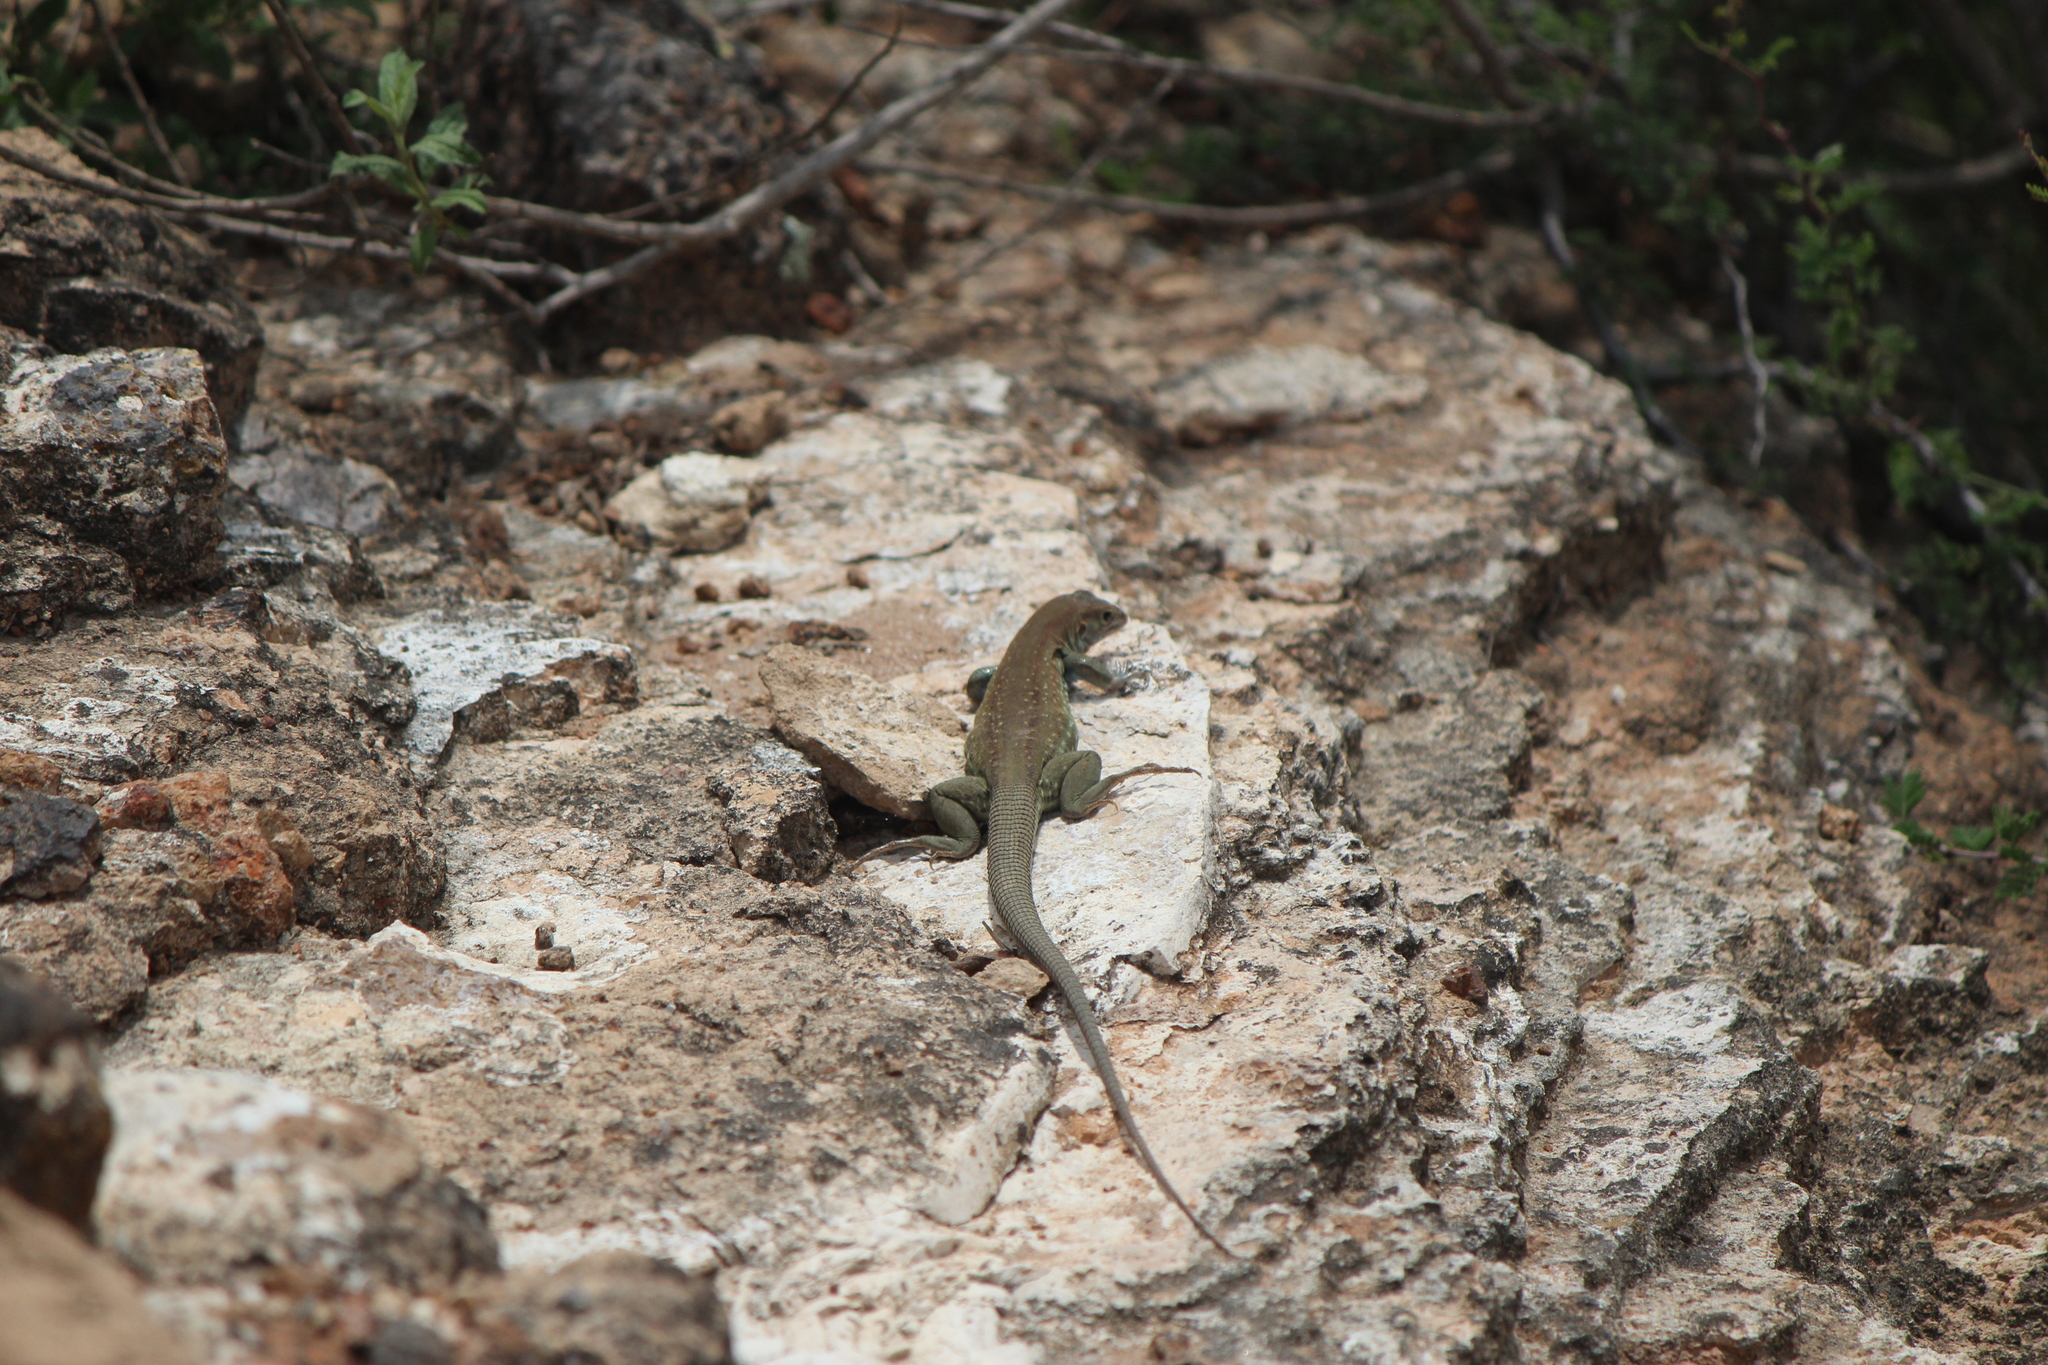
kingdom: Animalia
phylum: Chordata
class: Squamata
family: Teiidae
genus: Aspidoscelis
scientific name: Aspidoscelis gularis
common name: Eastern spotted whiptail
